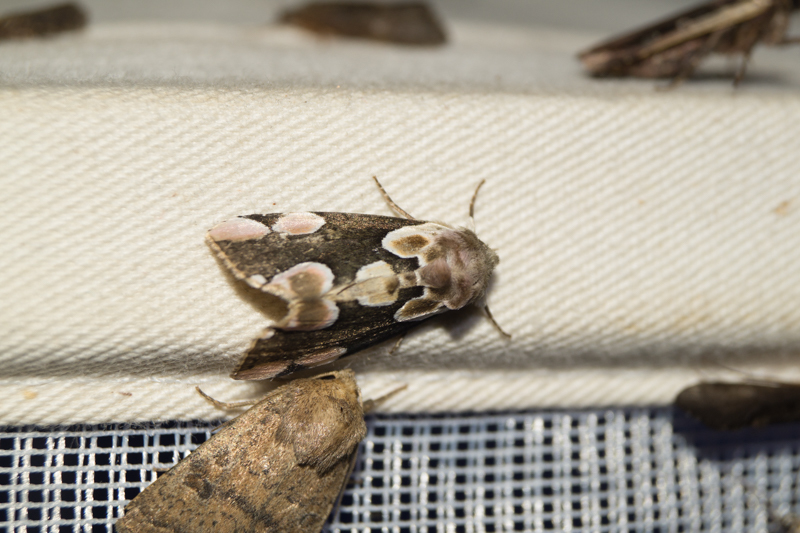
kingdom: Animalia
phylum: Arthropoda
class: Insecta
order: Lepidoptera
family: Drepanidae
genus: Thyatira
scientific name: Thyatira batis
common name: Peach blossom
